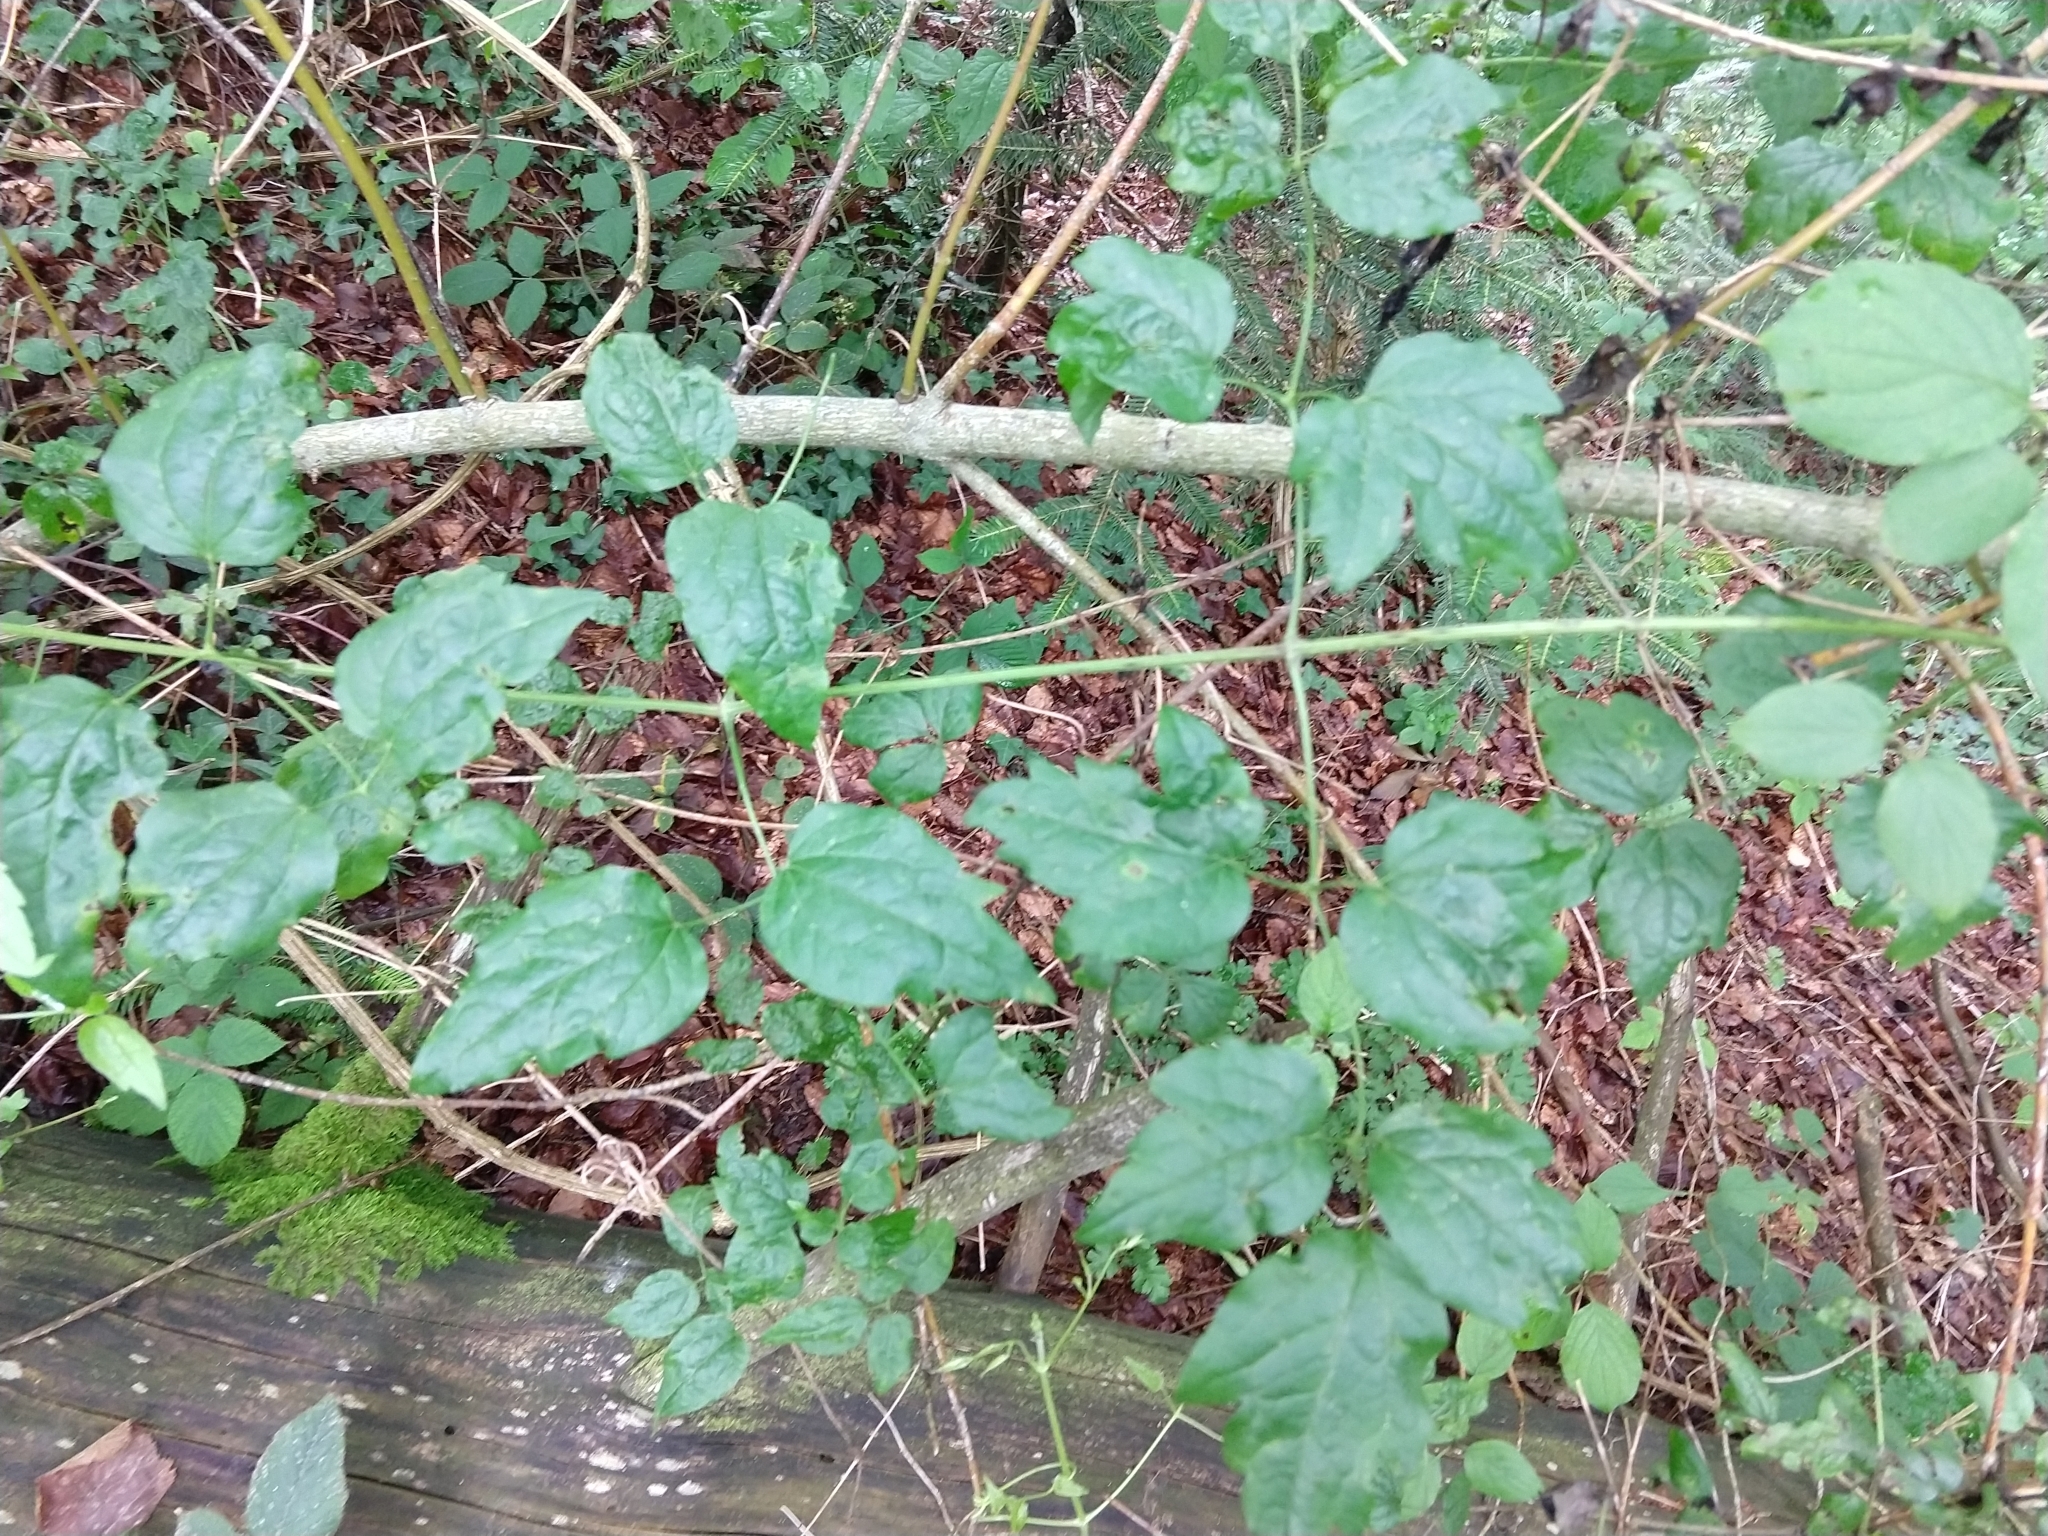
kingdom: Plantae
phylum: Tracheophyta
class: Magnoliopsida
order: Ranunculales
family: Ranunculaceae
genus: Clematis
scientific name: Clematis vitalba
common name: Evergreen clematis
